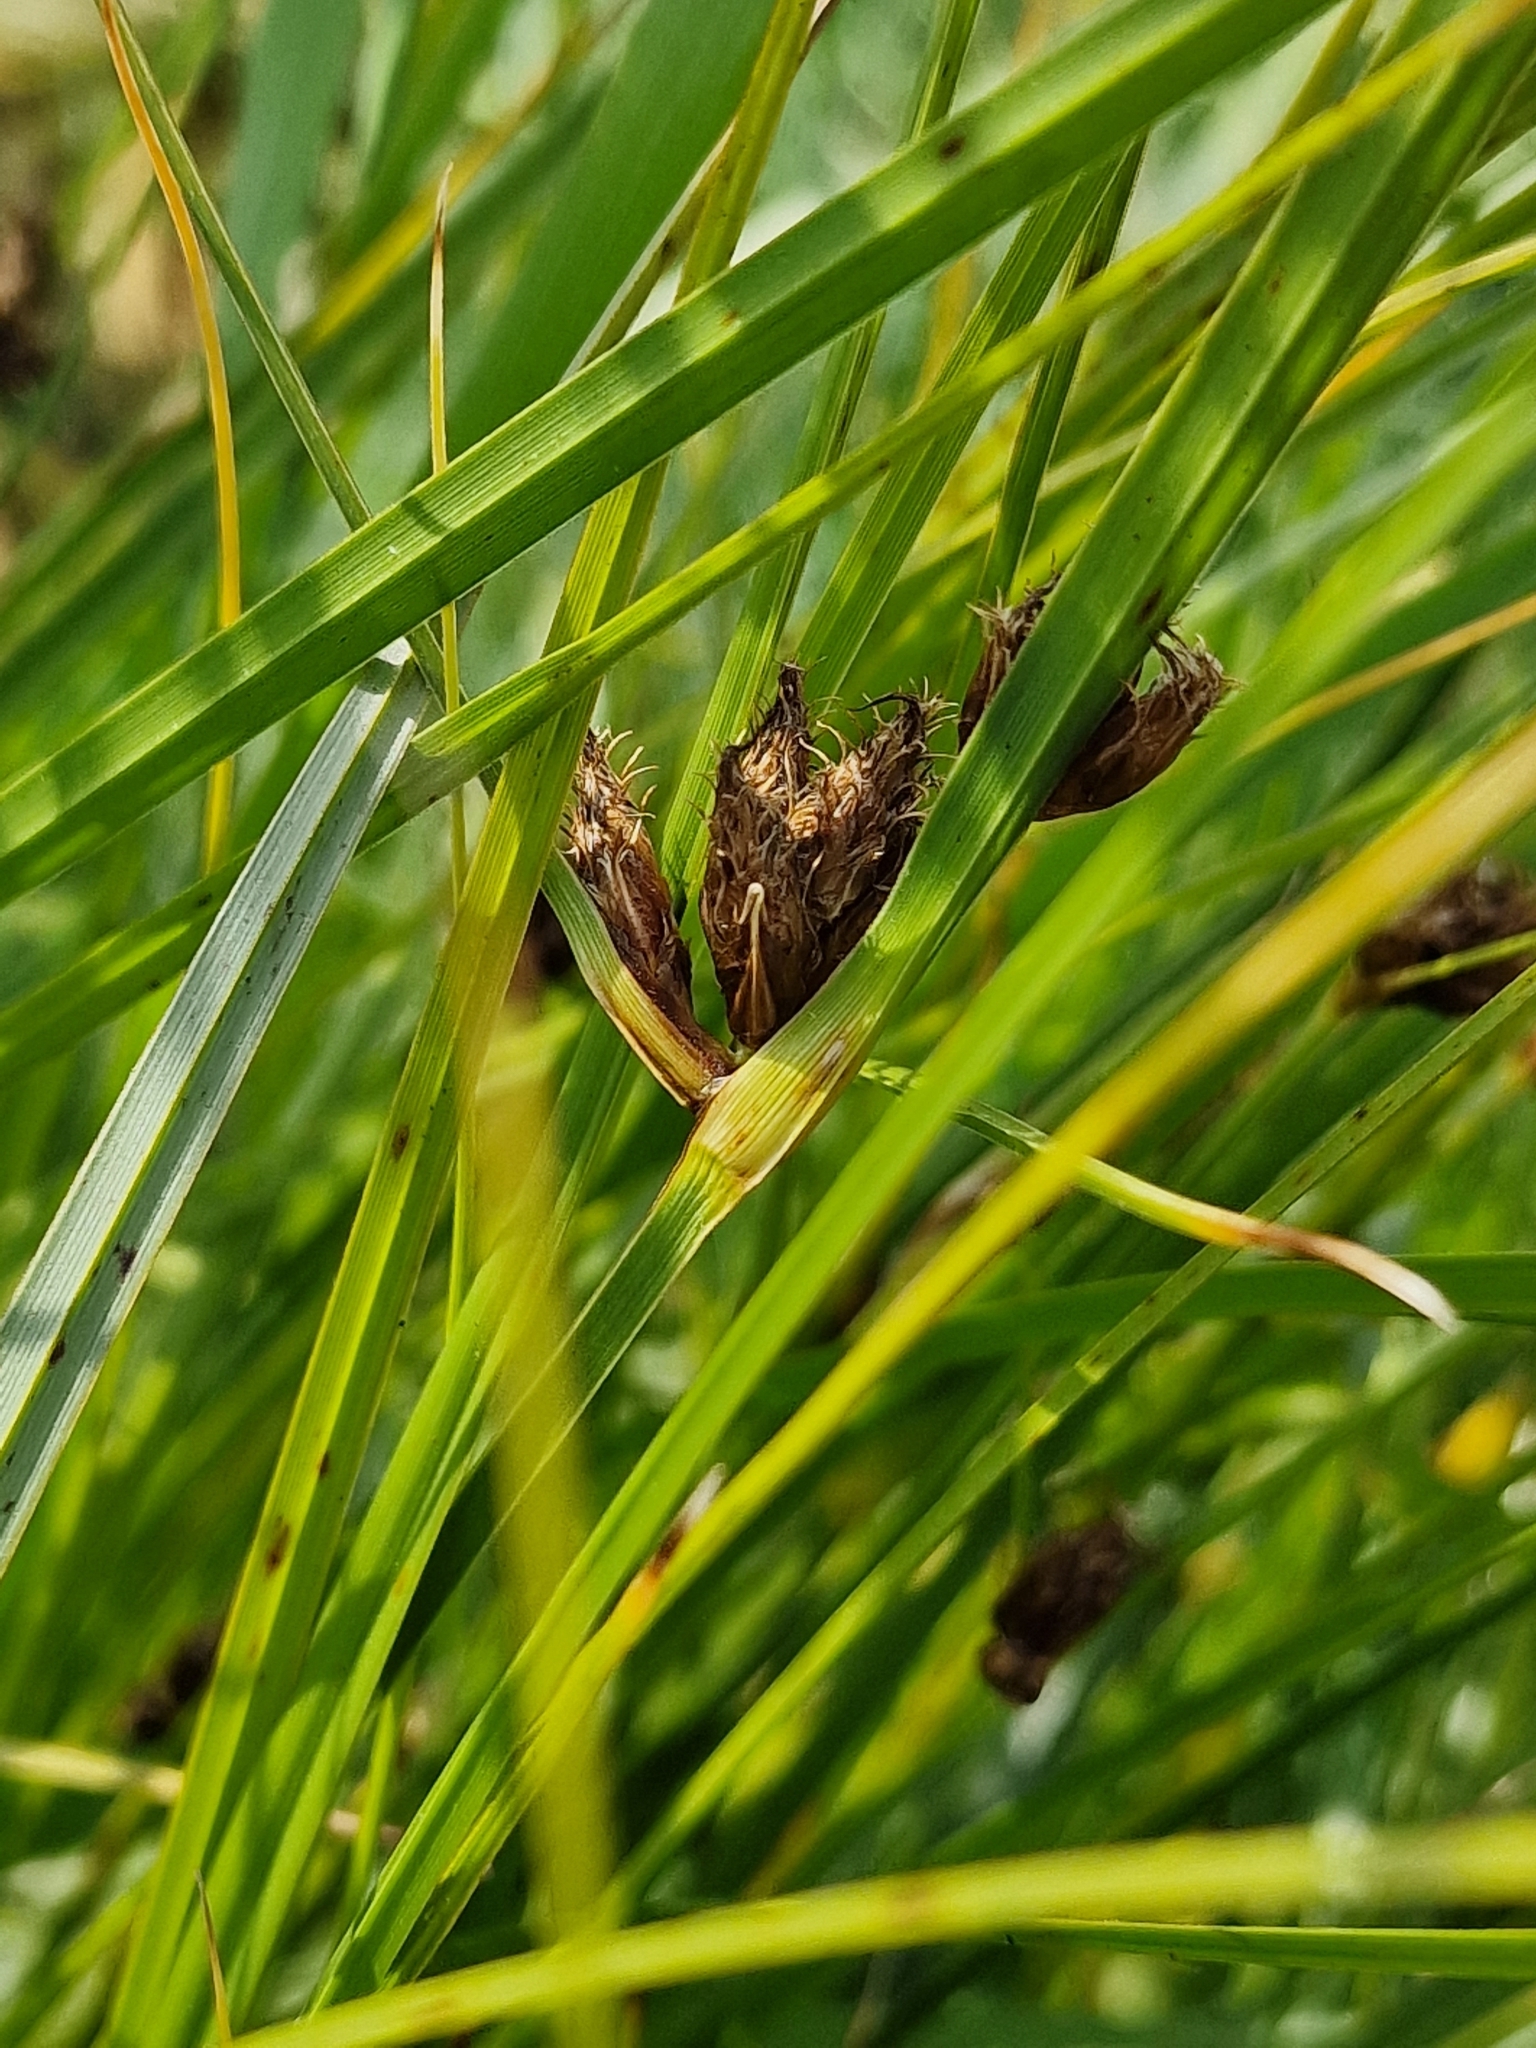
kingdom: Plantae
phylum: Tracheophyta
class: Liliopsida
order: Poales
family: Cyperaceae
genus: Bolboschoenus
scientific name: Bolboschoenus maritimus
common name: Sea club-rush
